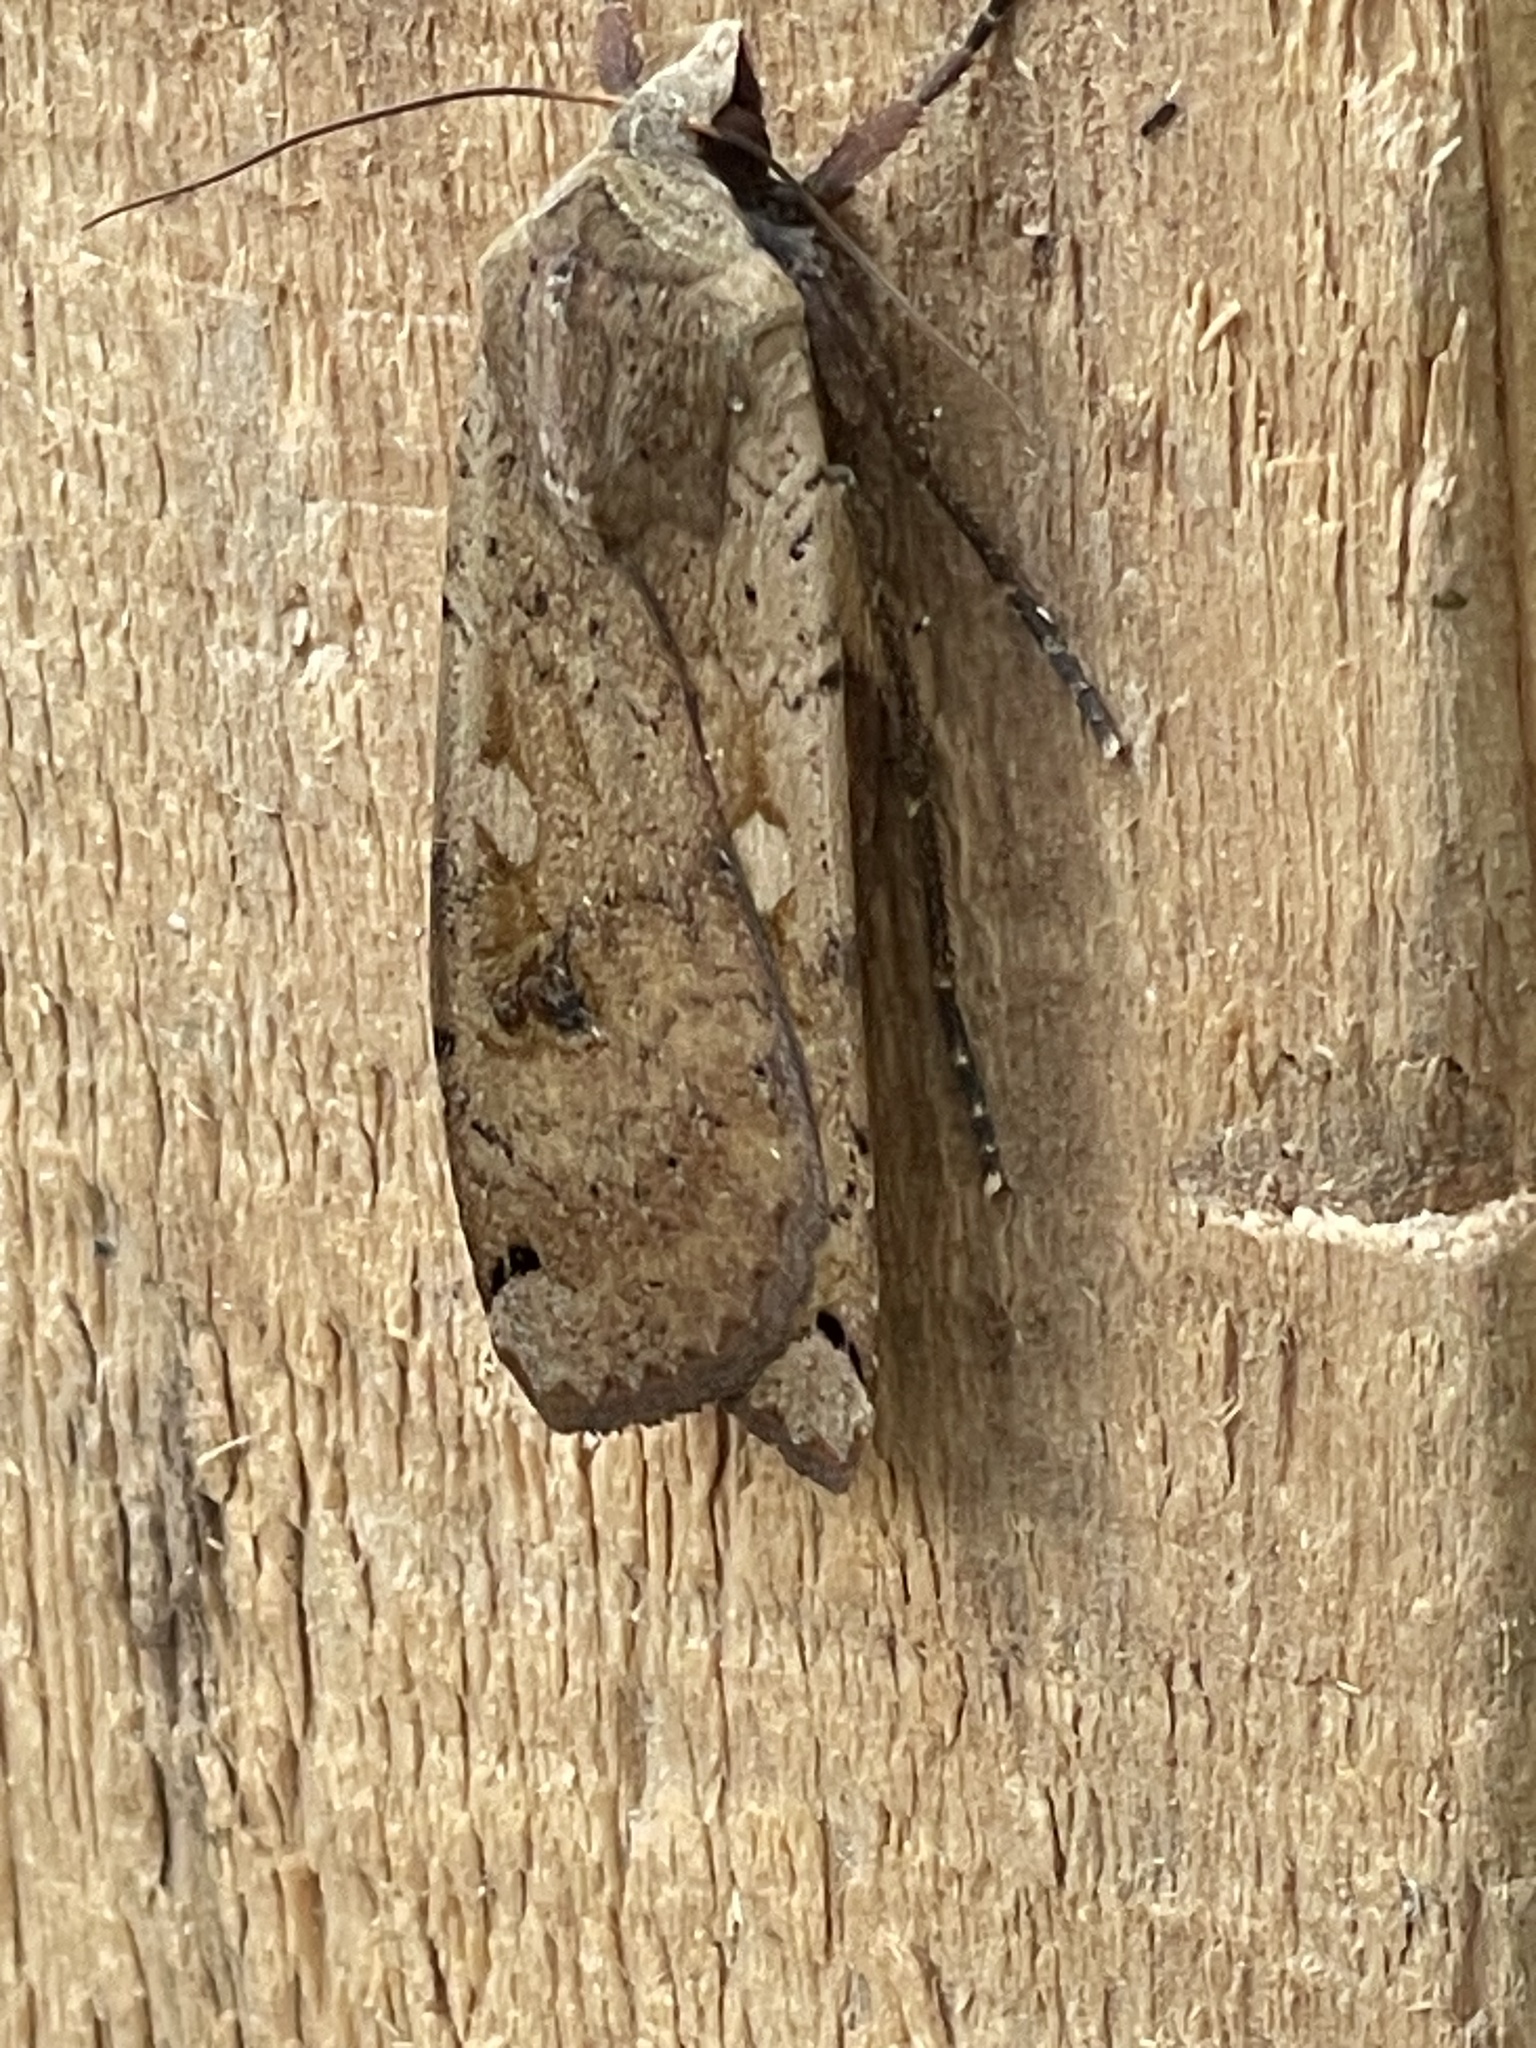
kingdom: Animalia
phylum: Arthropoda
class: Insecta
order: Lepidoptera
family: Noctuidae
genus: Noctua
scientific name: Noctua pronuba
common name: Large yellow underwing
